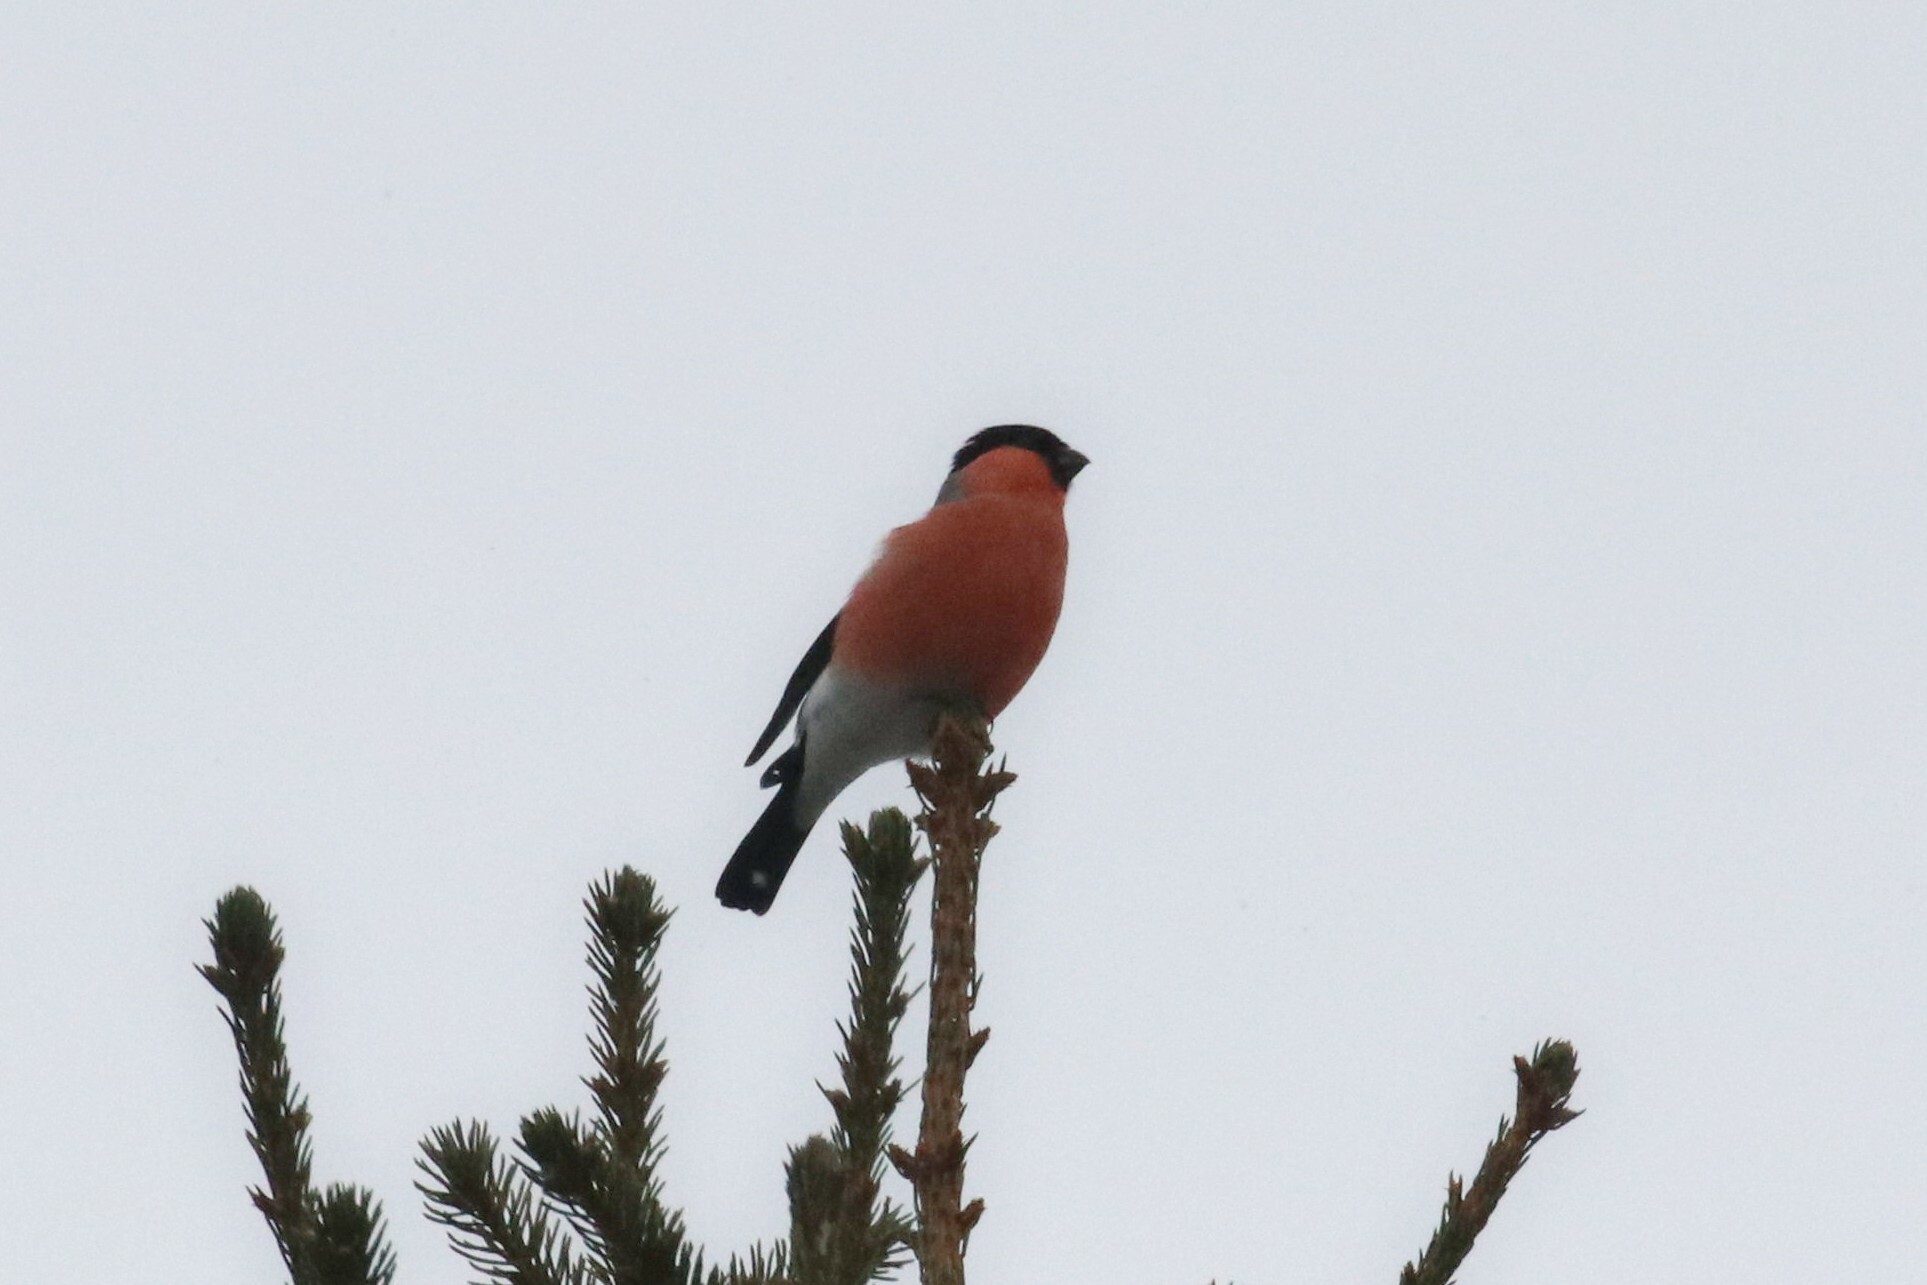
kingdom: Animalia
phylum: Chordata
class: Aves
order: Passeriformes
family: Fringillidae
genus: Pyrrhula
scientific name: Pyrrhula pyrrhula
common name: Eurasian bullfinch
